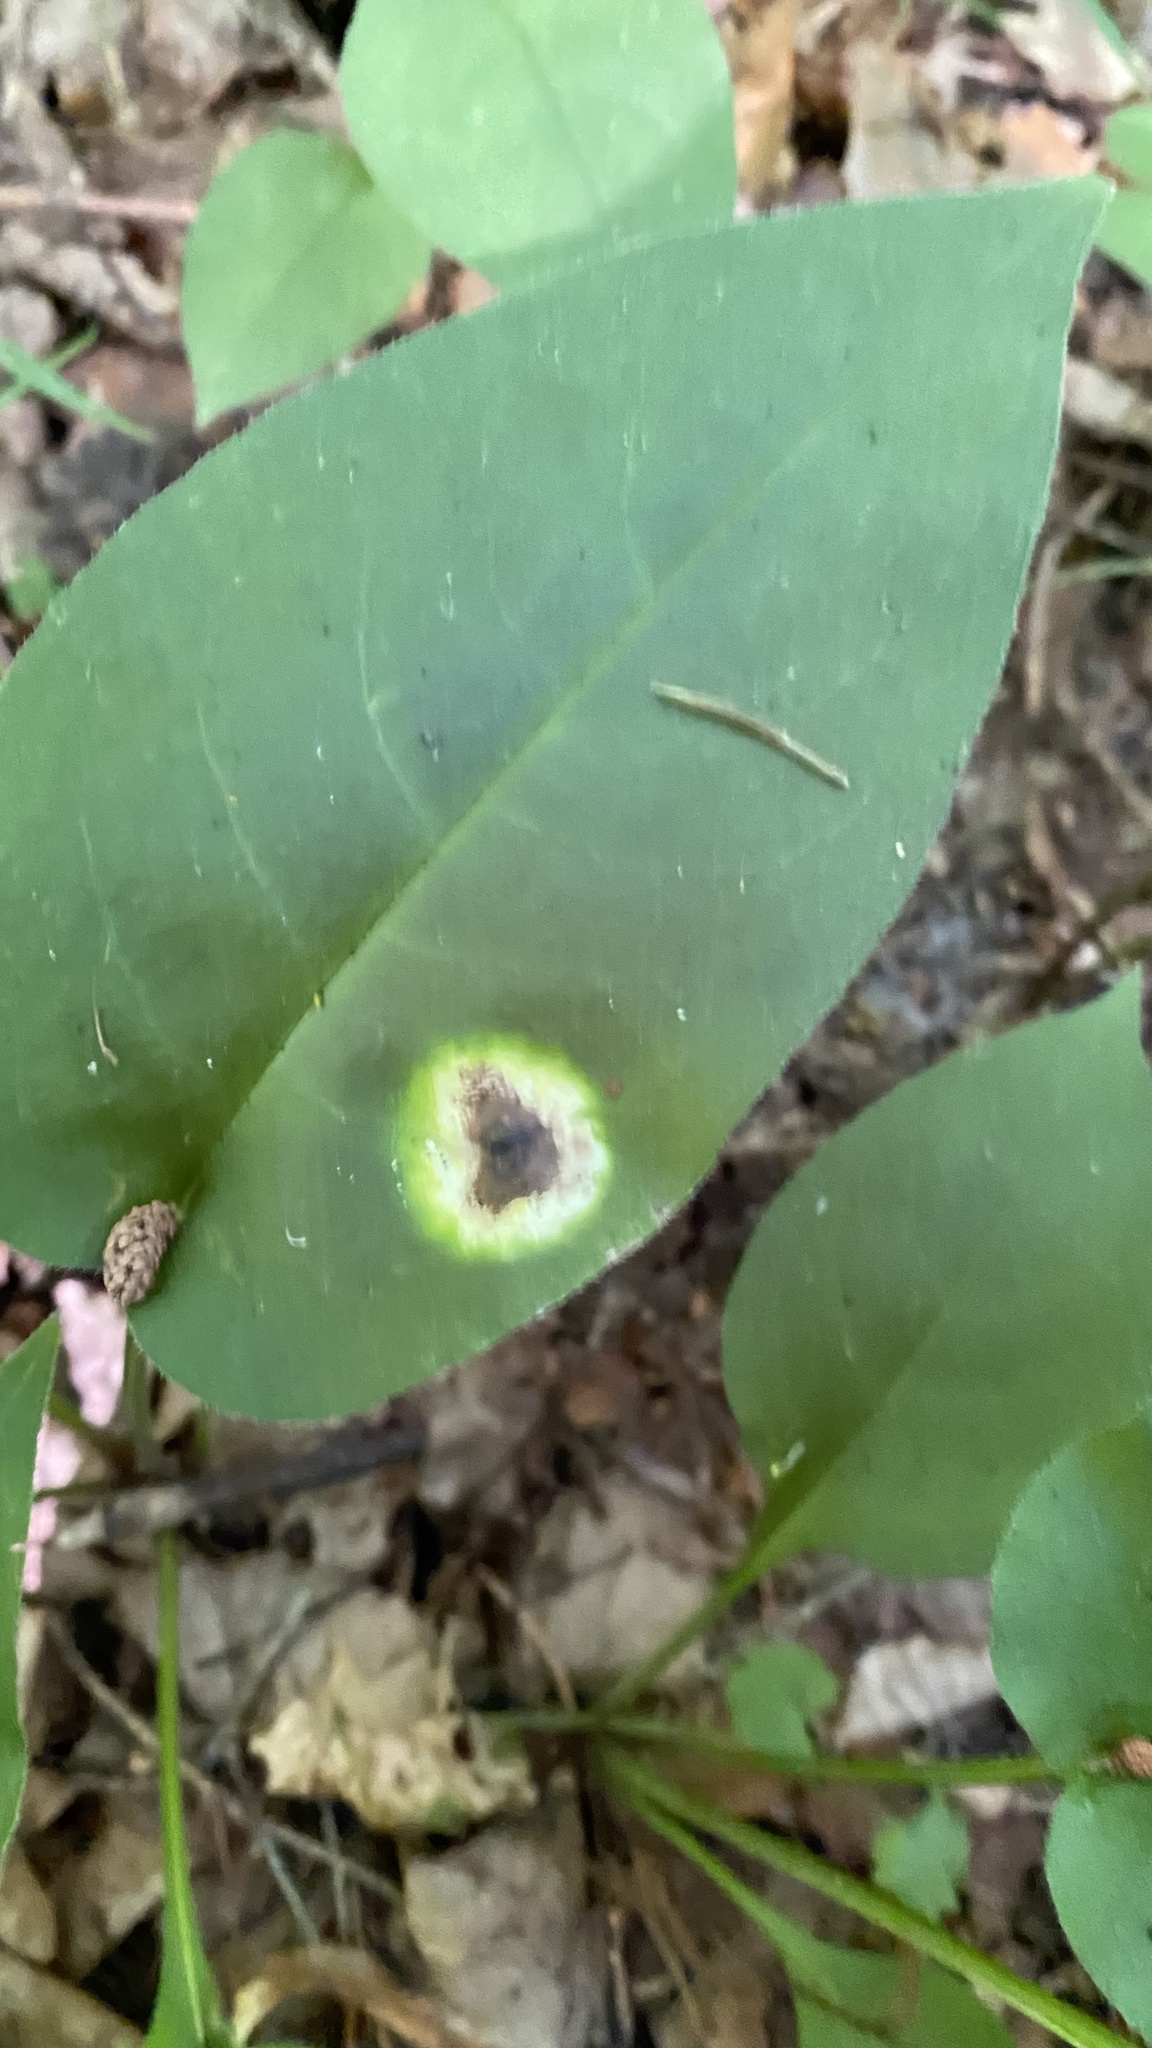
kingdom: Fungi
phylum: Basidiomycota
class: Pucciniomycetes
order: Pucciniales
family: Pucciniaceae
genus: Puccinia
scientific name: Puccinia recondita
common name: Brown rust of wheat
